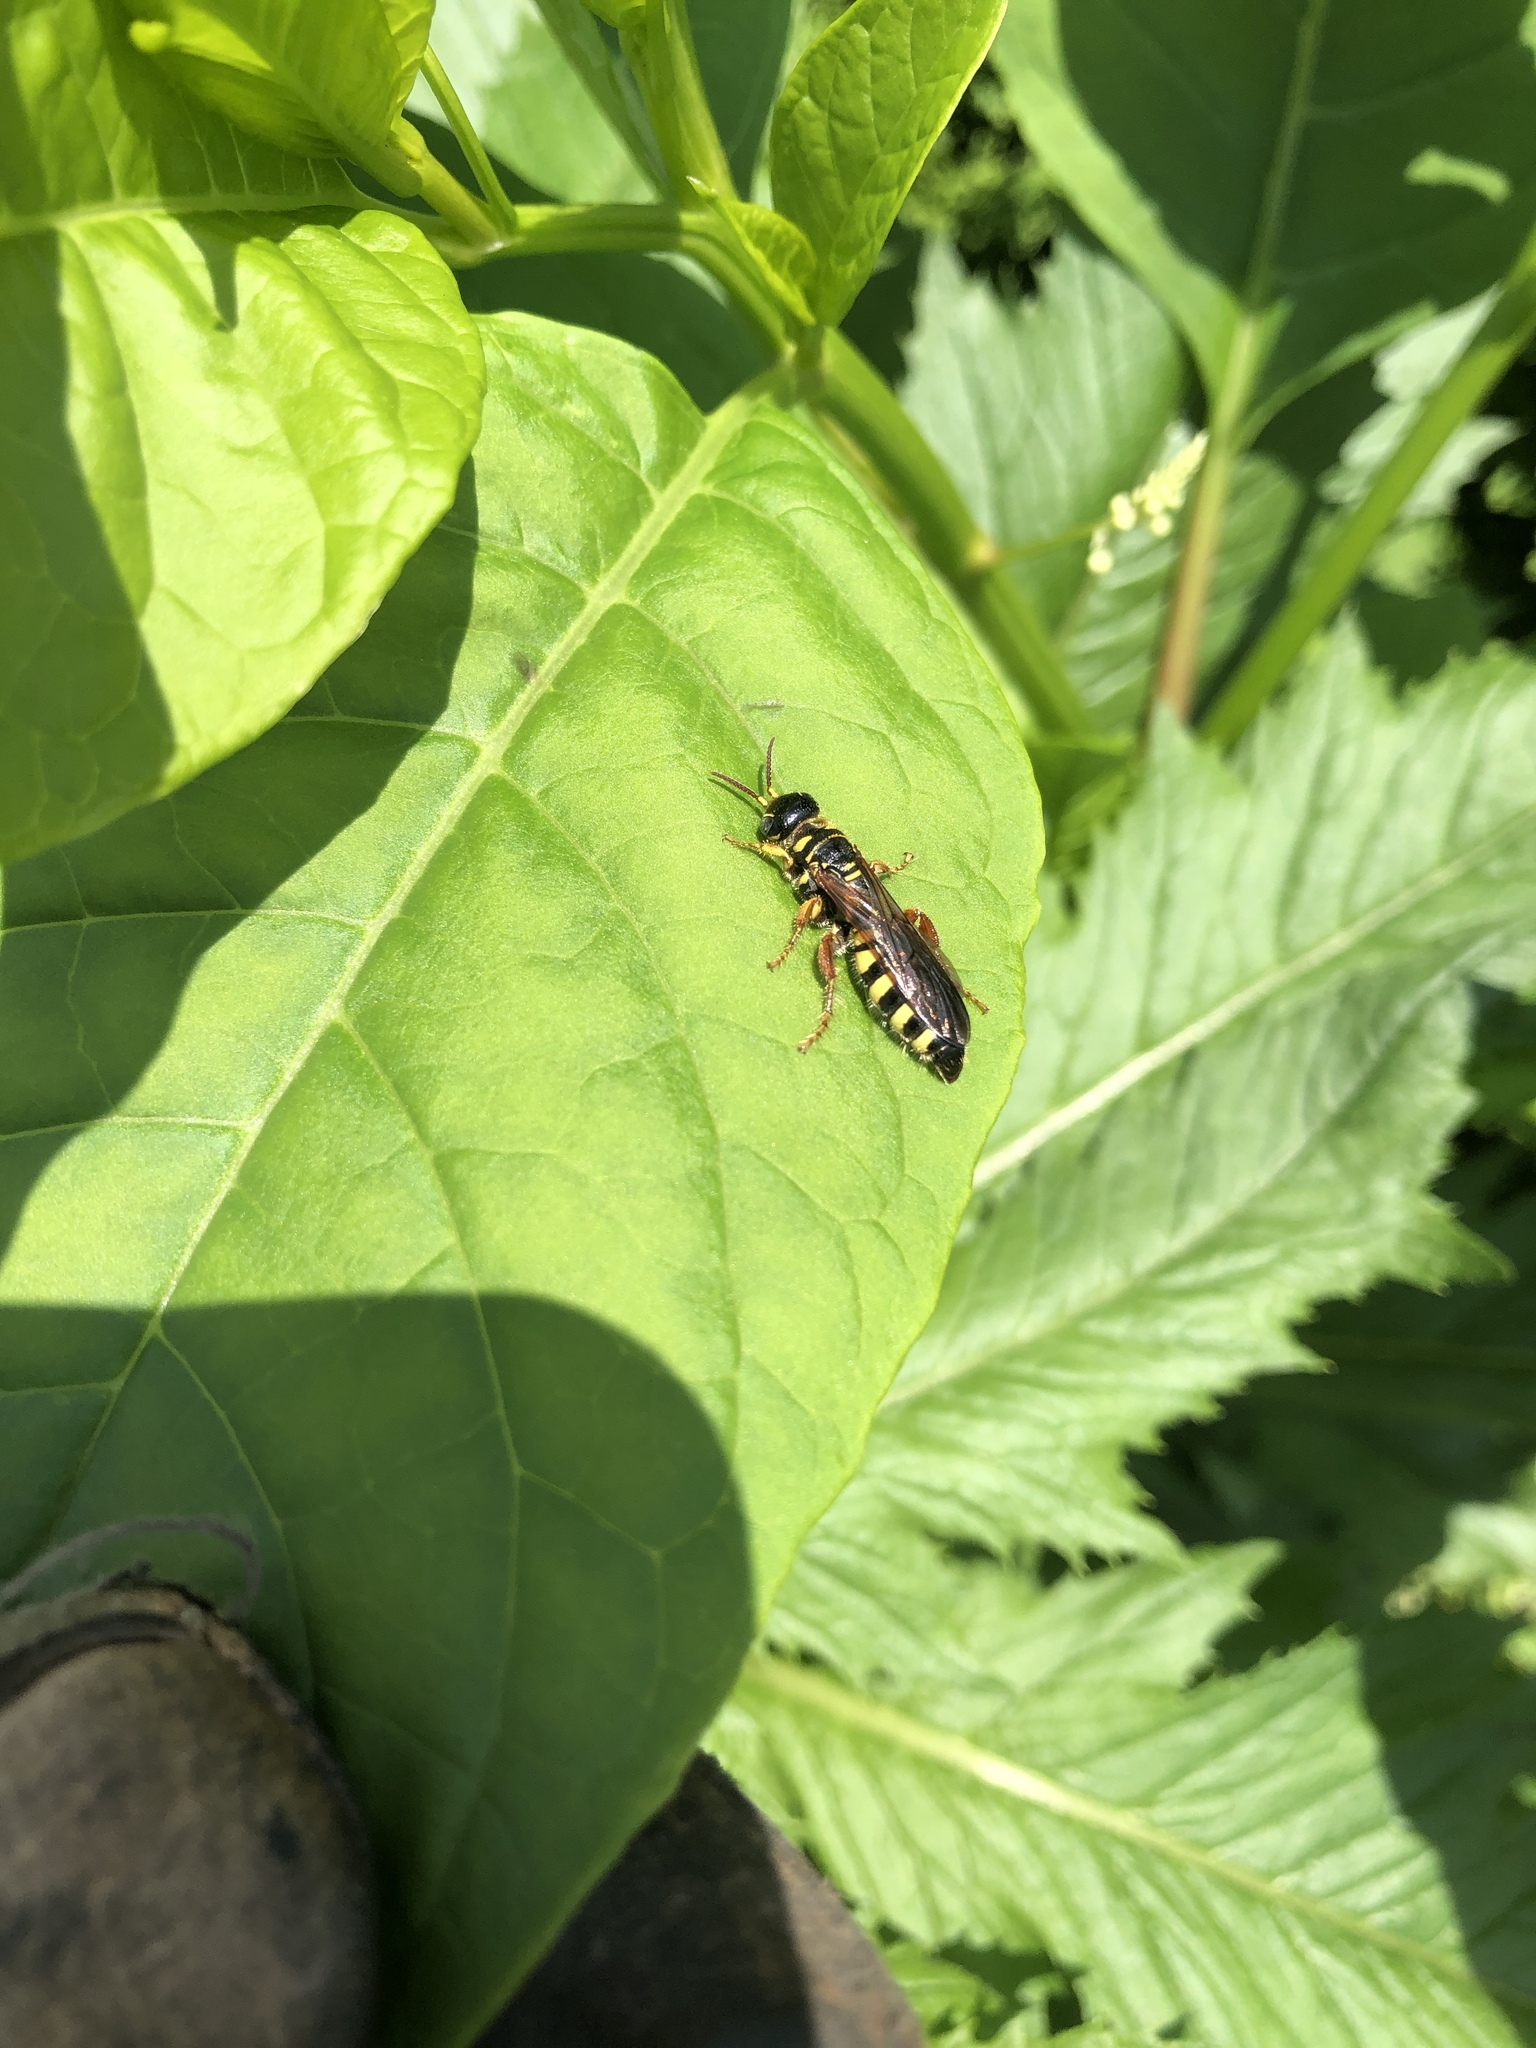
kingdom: Animalia
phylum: Arthropoda
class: Insecta
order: Hymenoptera
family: Tiphiidae
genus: Myzinum
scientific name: Myzinum quinquecinctum
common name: Five-banded thynnid wasp
